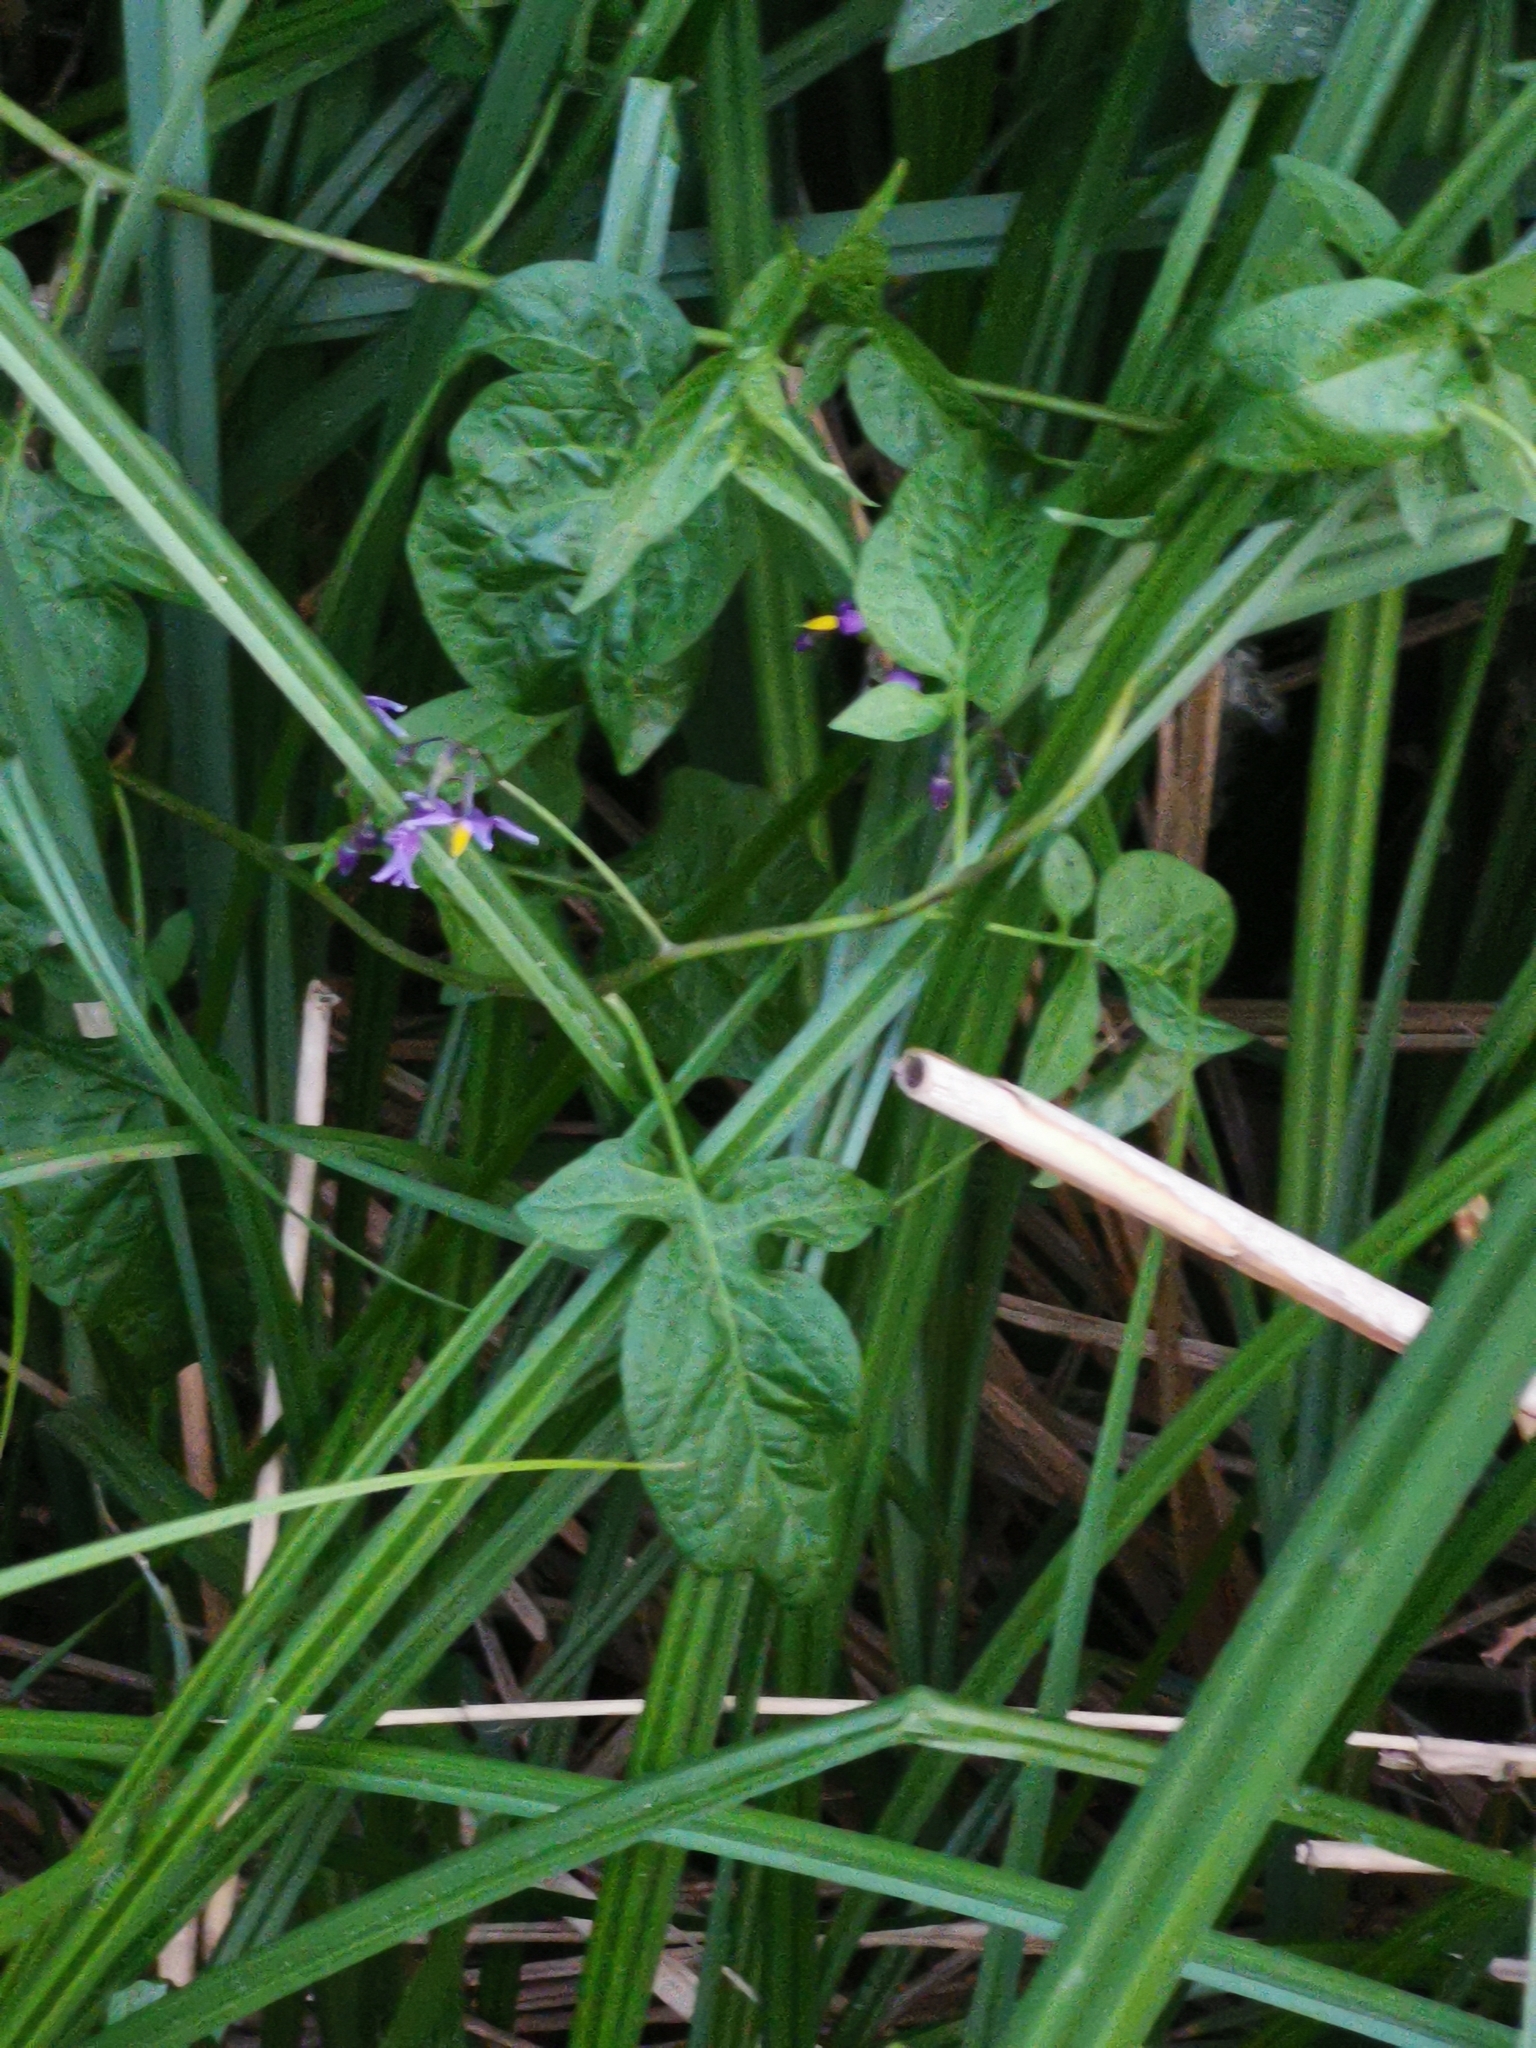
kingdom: Plantae
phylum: Tracheophyta
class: Magnoliopsida
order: Solanales
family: Solanaceae
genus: Solanum
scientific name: Solanum dulcamara
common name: Climbing nightshade
